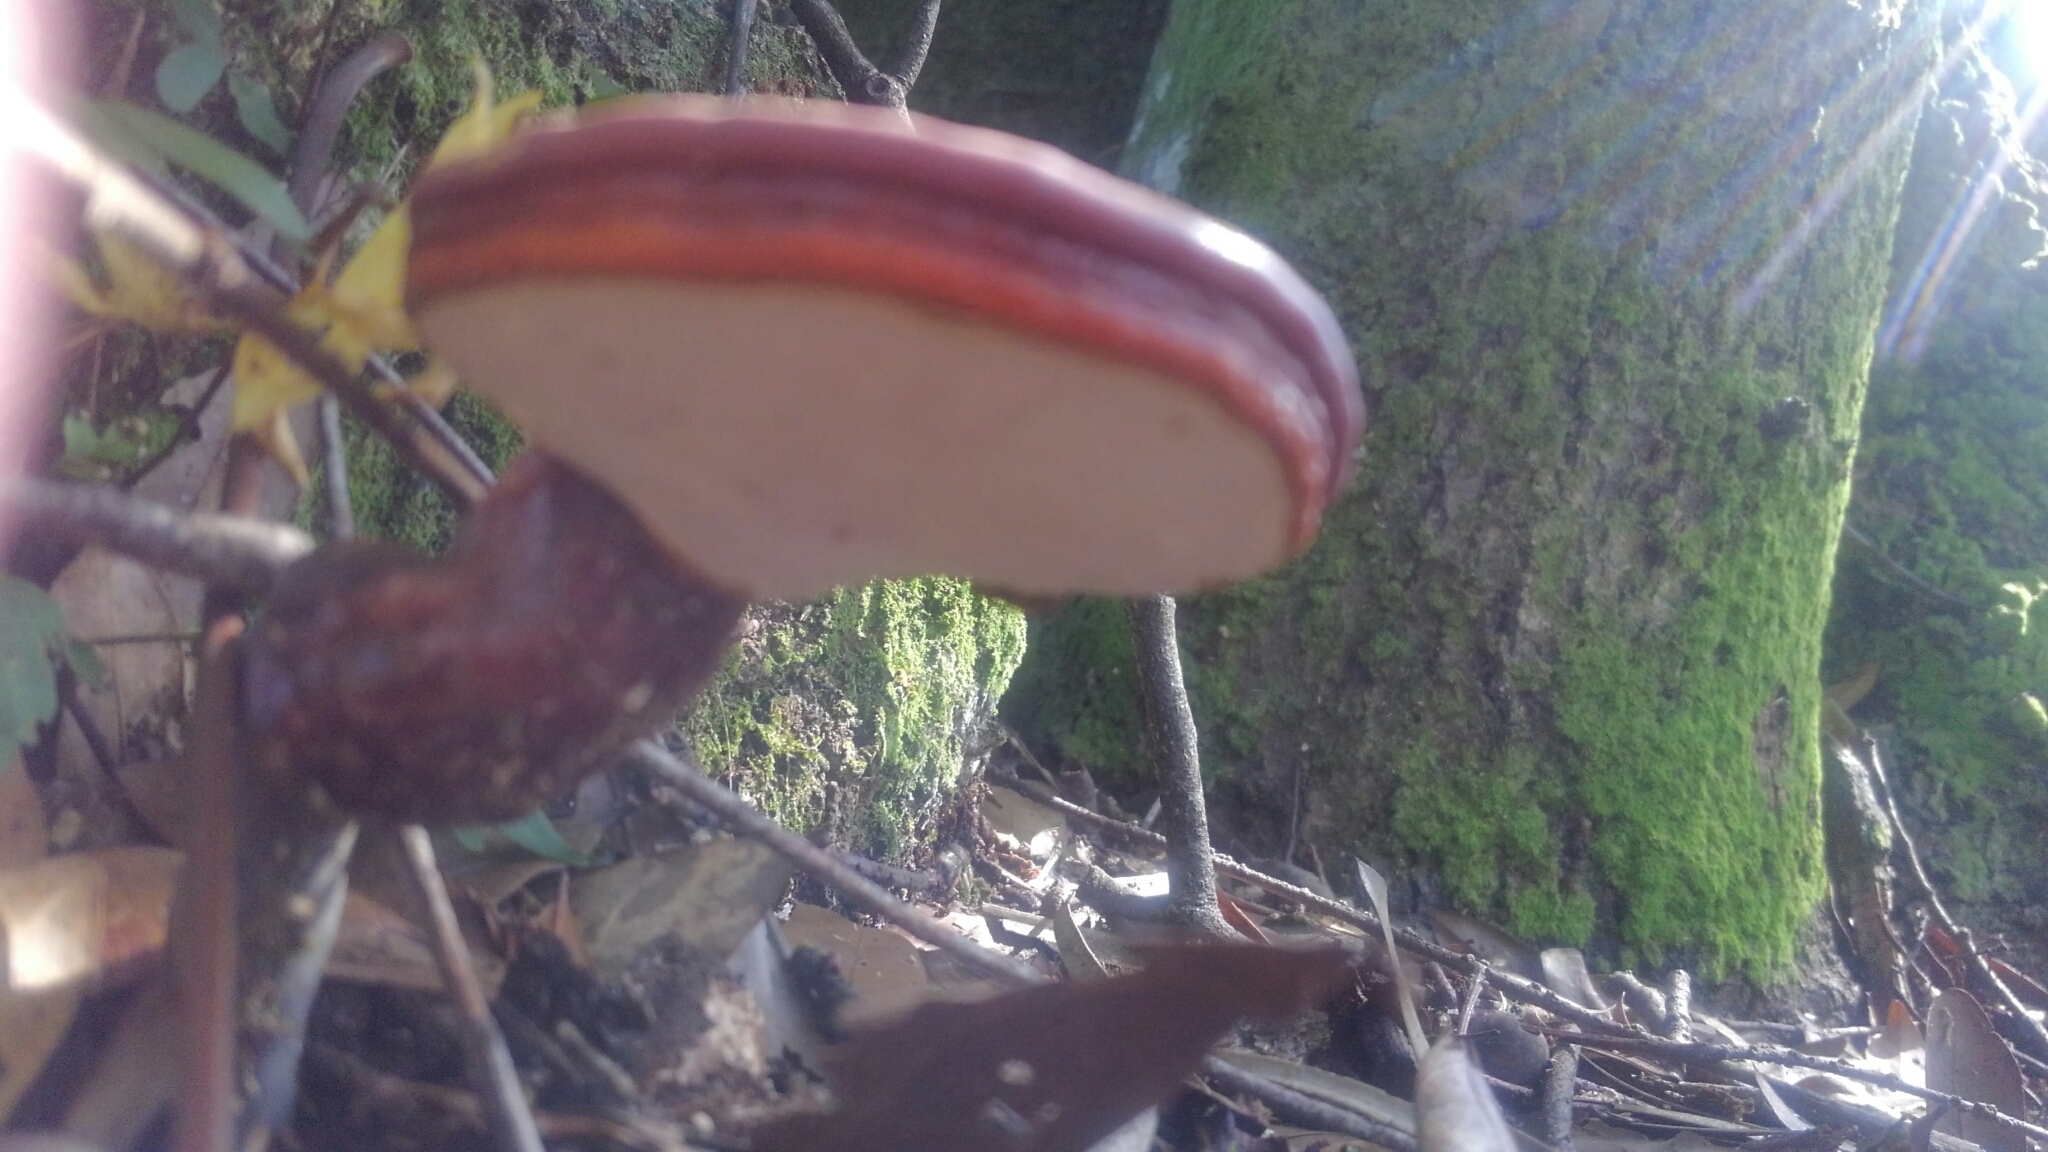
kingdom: Fungi
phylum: Basidiomycota
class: Agaricomycetes
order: Polyporales
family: Polyporaceae
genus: Ganoderma
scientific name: Ganoderma curtisii
